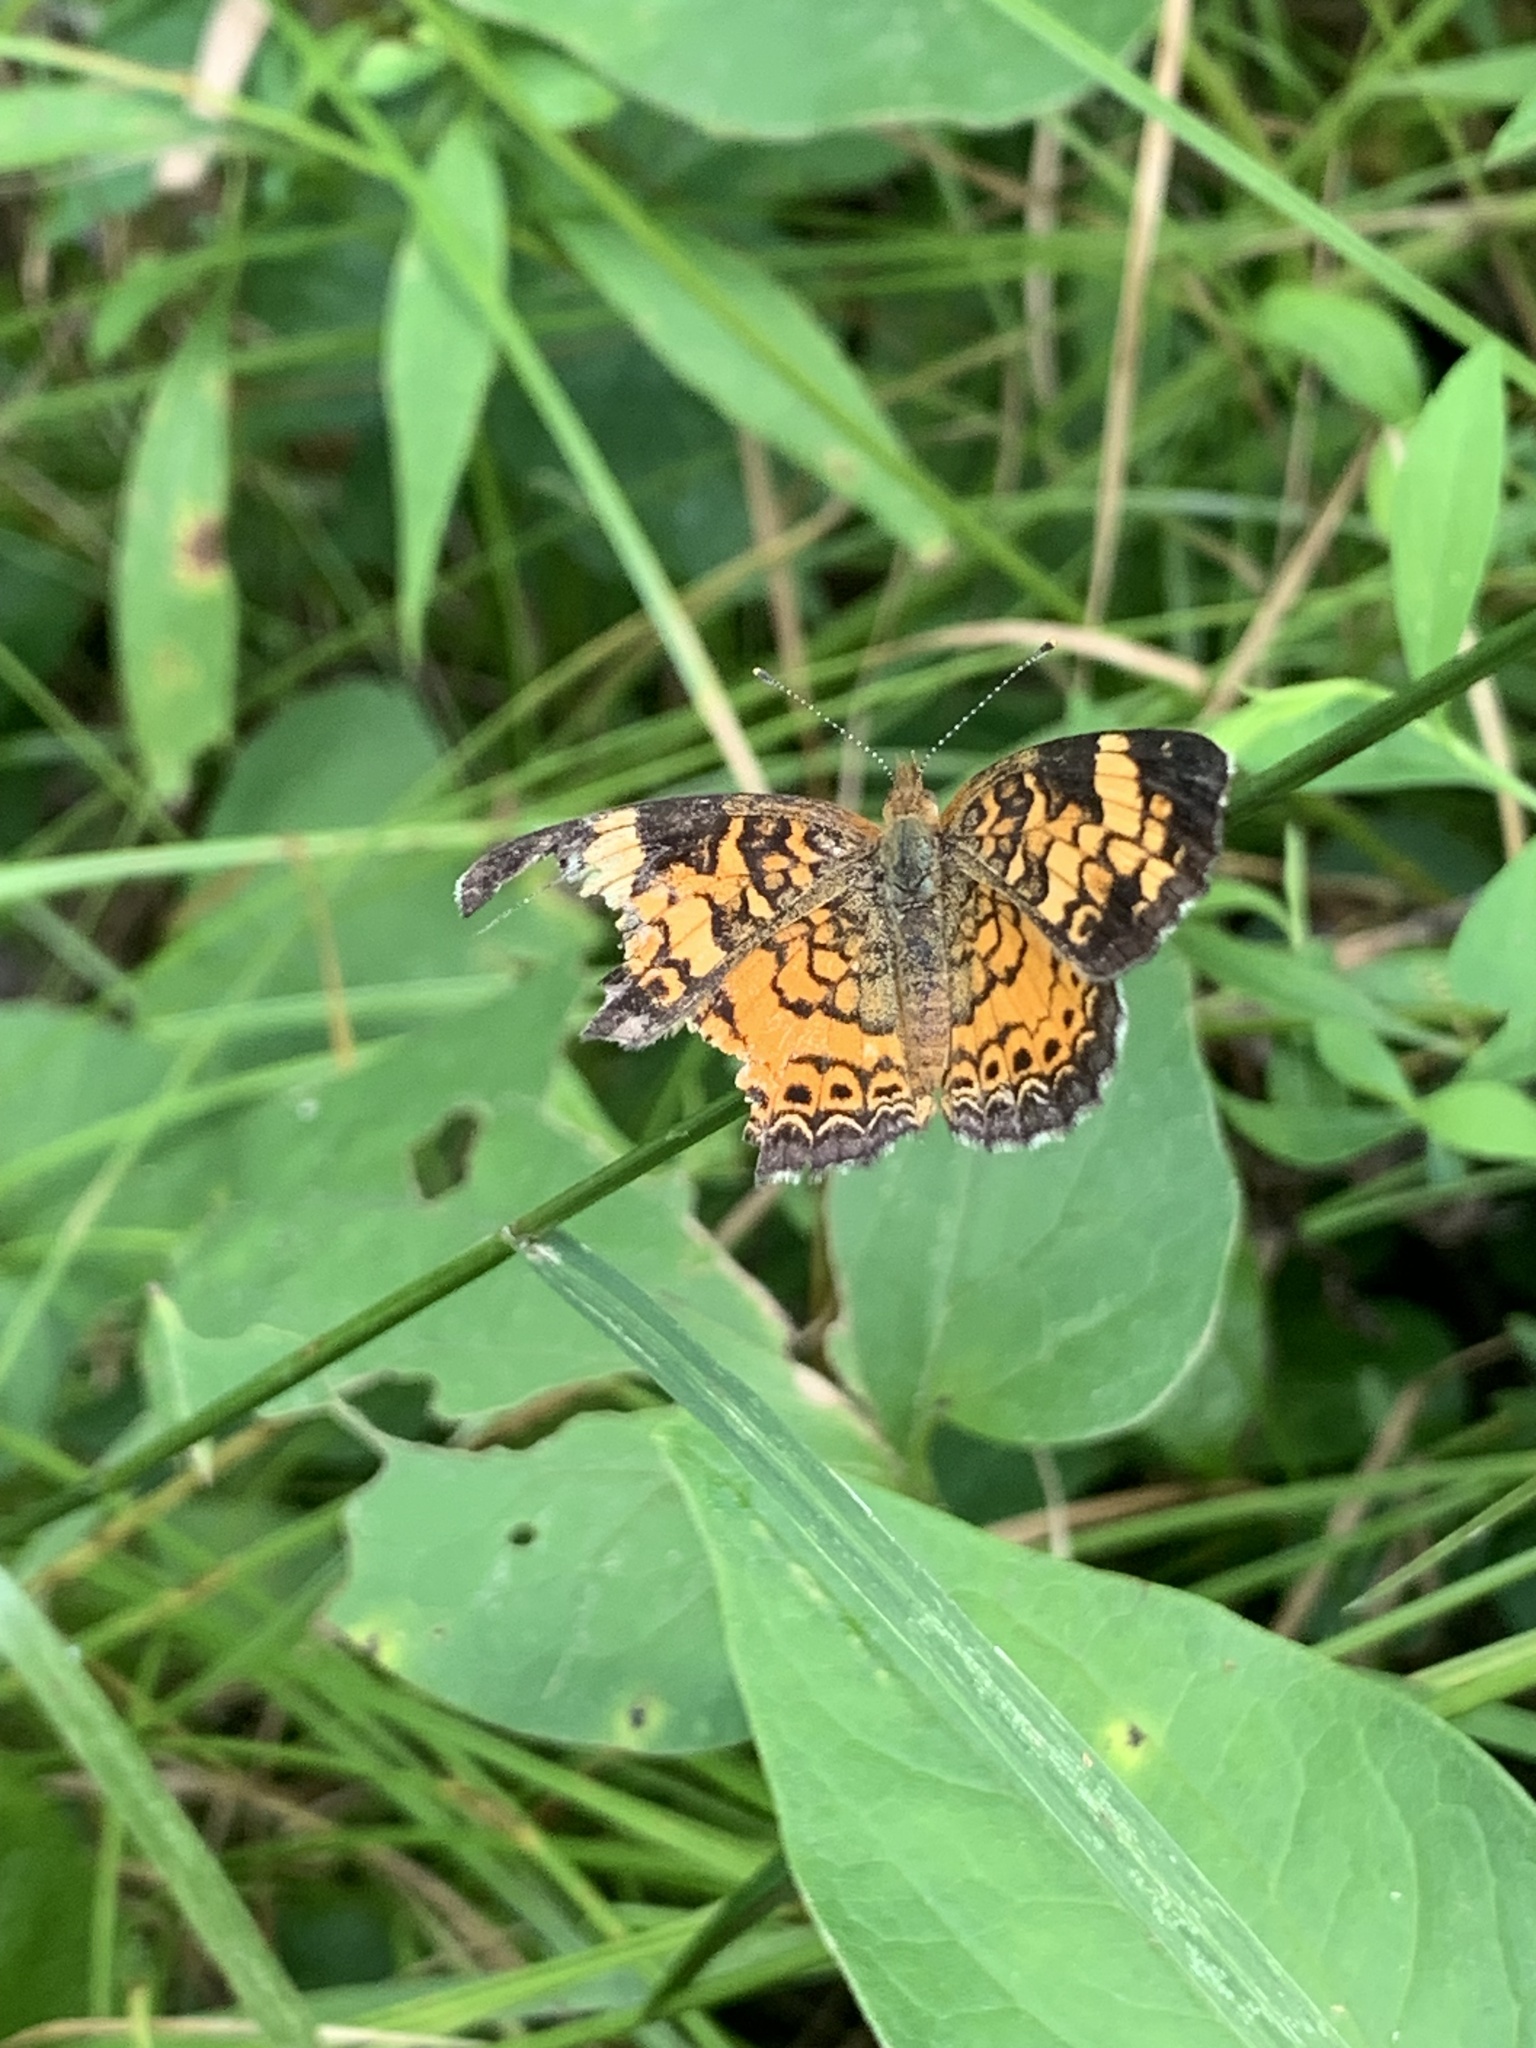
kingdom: Animalia
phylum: Arthropoda
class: Insecta
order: Lepidoptera
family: Nymphalidae
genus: Phyciodes
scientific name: Phyciodes tharos
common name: Pearl crescent
